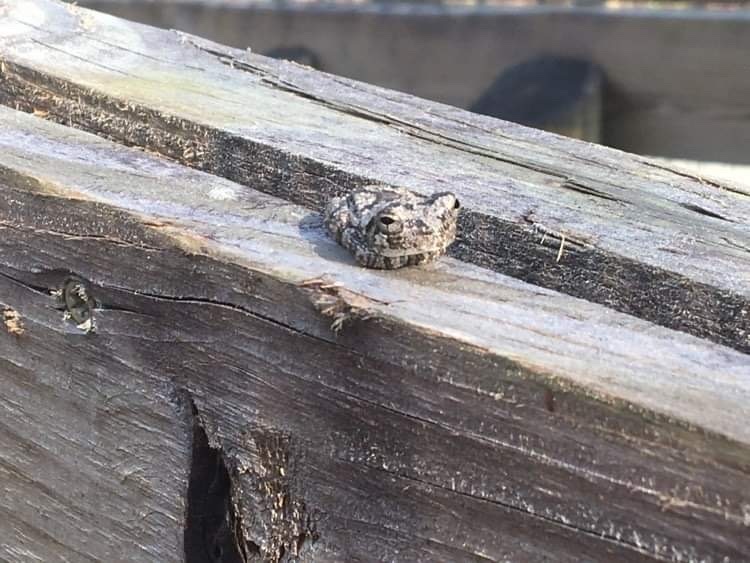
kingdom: Animalia
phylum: Chordata
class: Amphibia
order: Anura
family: Hylidae
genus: Dryophytes
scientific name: Dryophytes chrysoscelis
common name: Cope's gray treefrog
